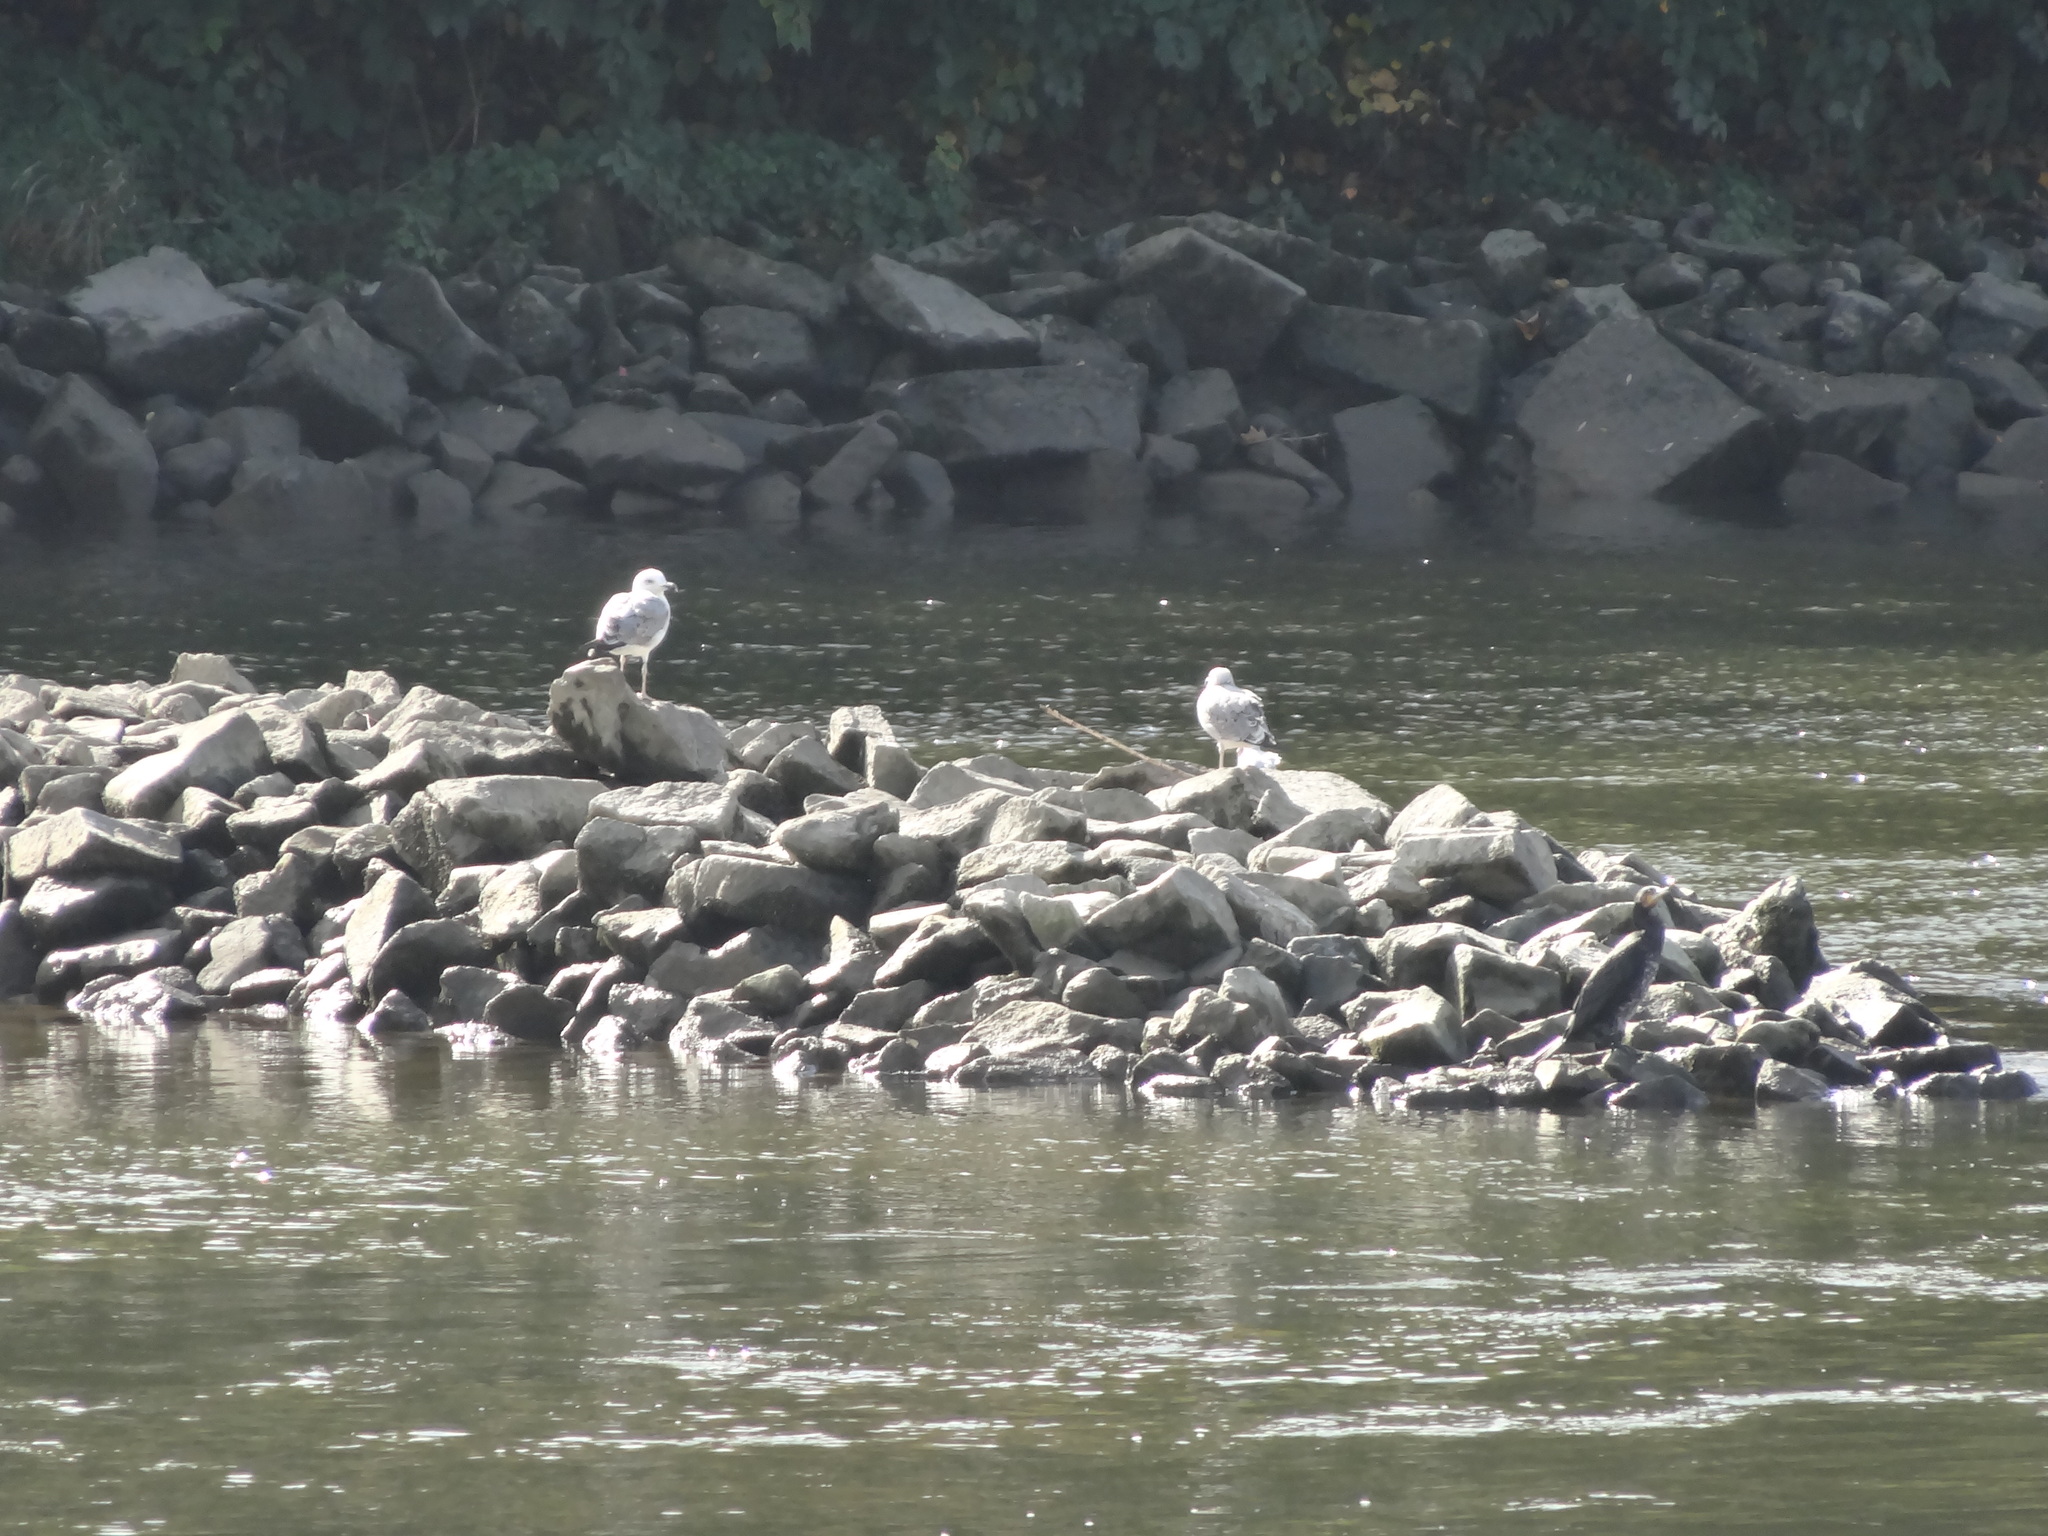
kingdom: Animalia
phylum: Chordata
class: Aves
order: Charadriiformes
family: Laridae
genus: Larus
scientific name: Larus michahellis
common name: Yellow-legged gull
